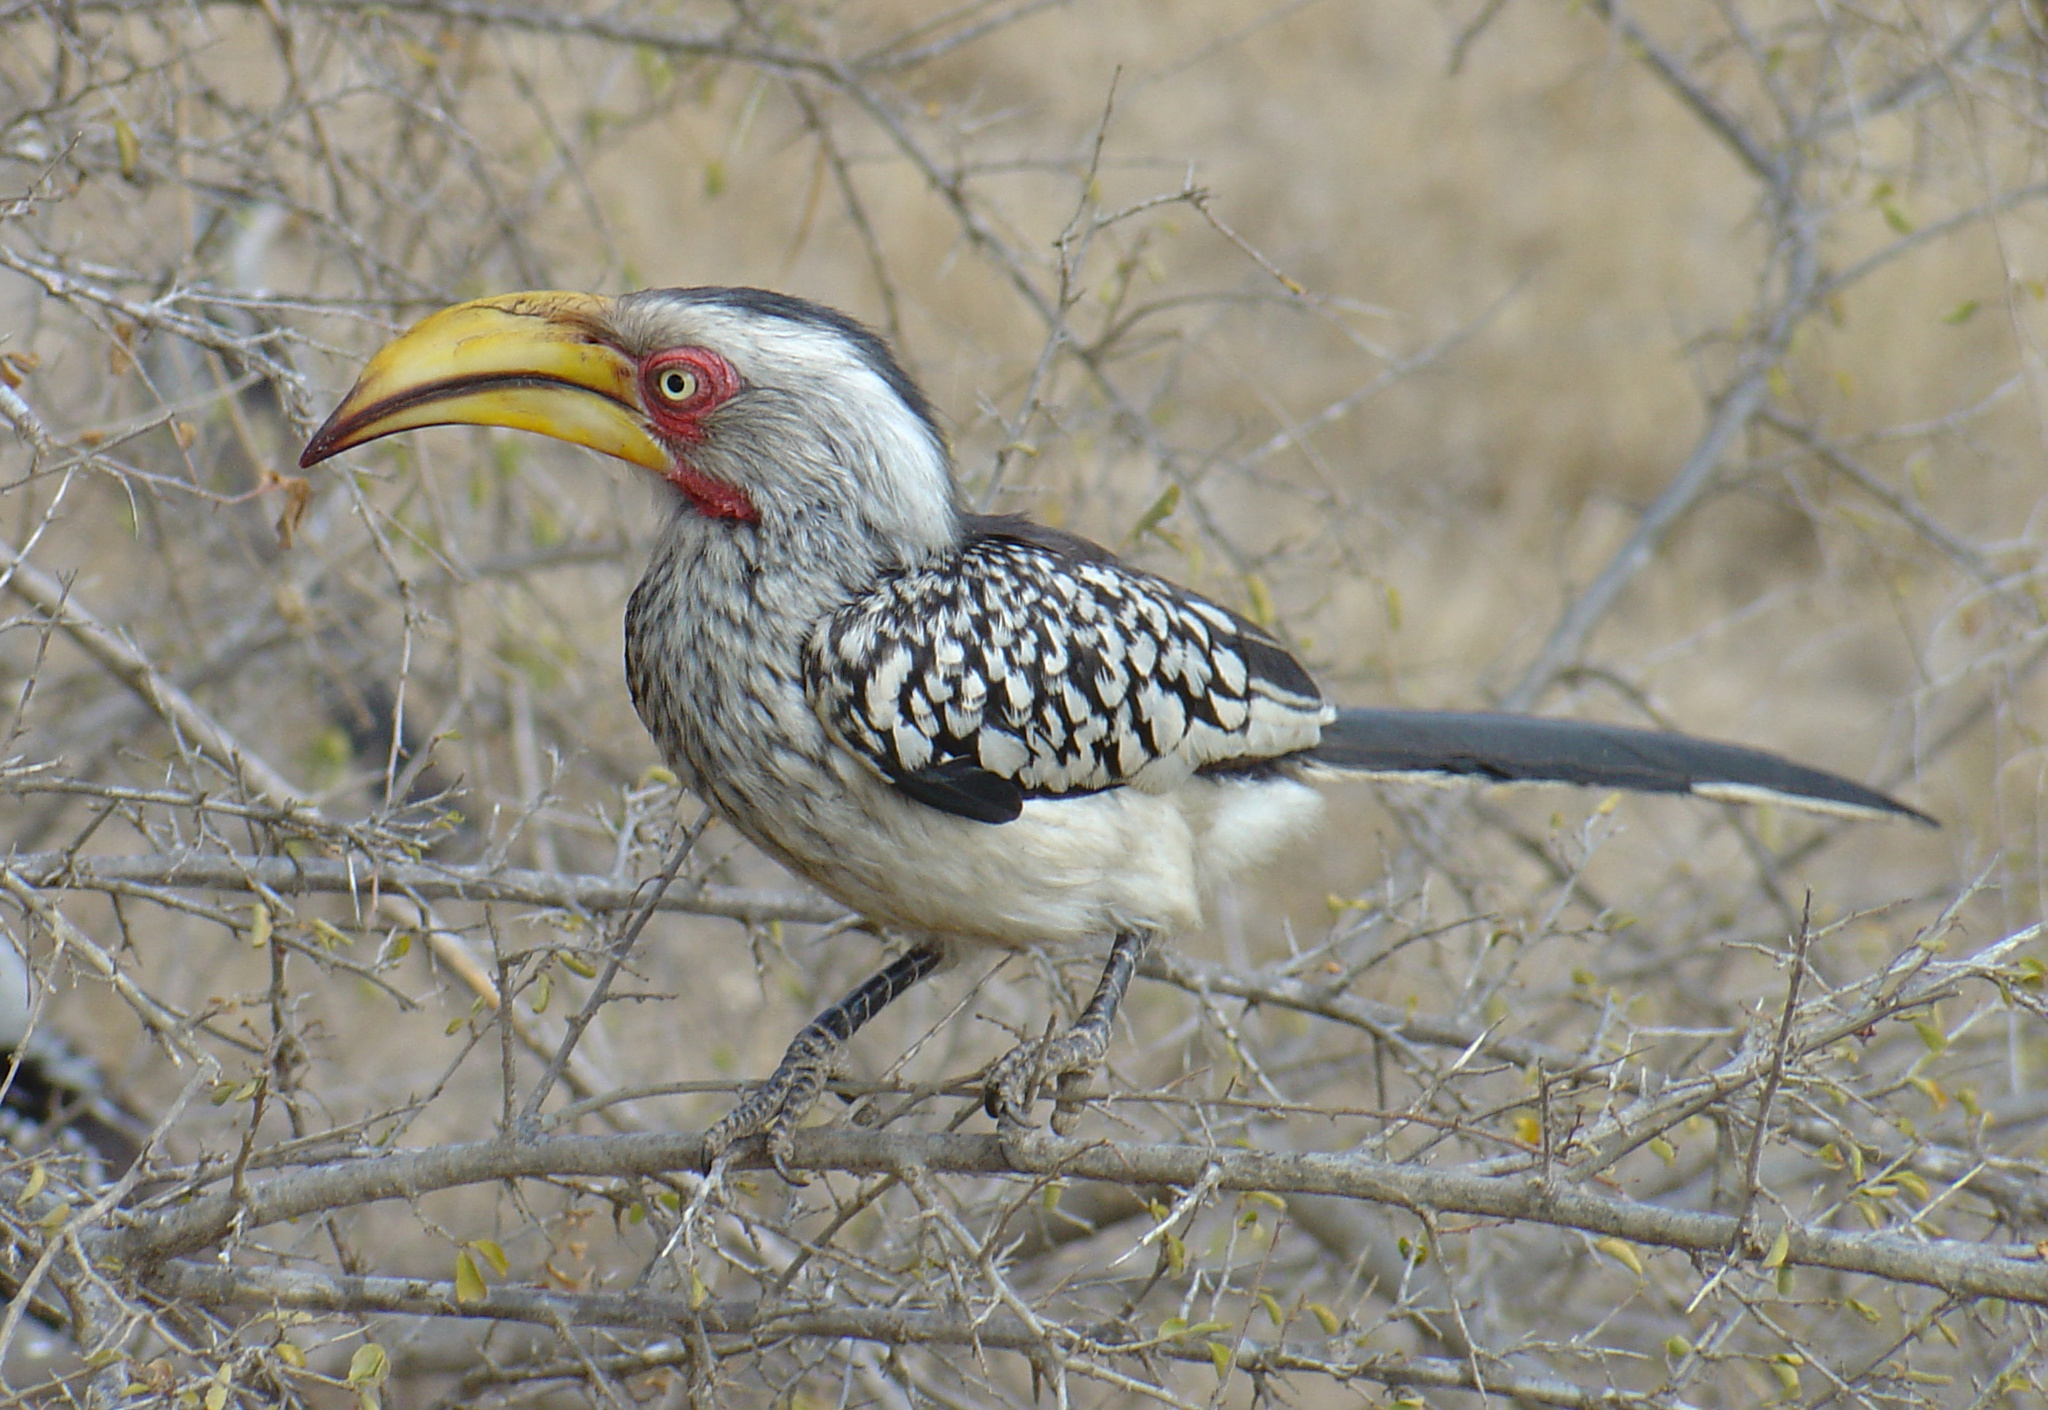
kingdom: Animalia
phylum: Chordata
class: Aves
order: Bucerotiformes
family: Bucerotidae
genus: Tockus
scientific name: Tockus leucomelas
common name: Southern yellow-billed hornbill
